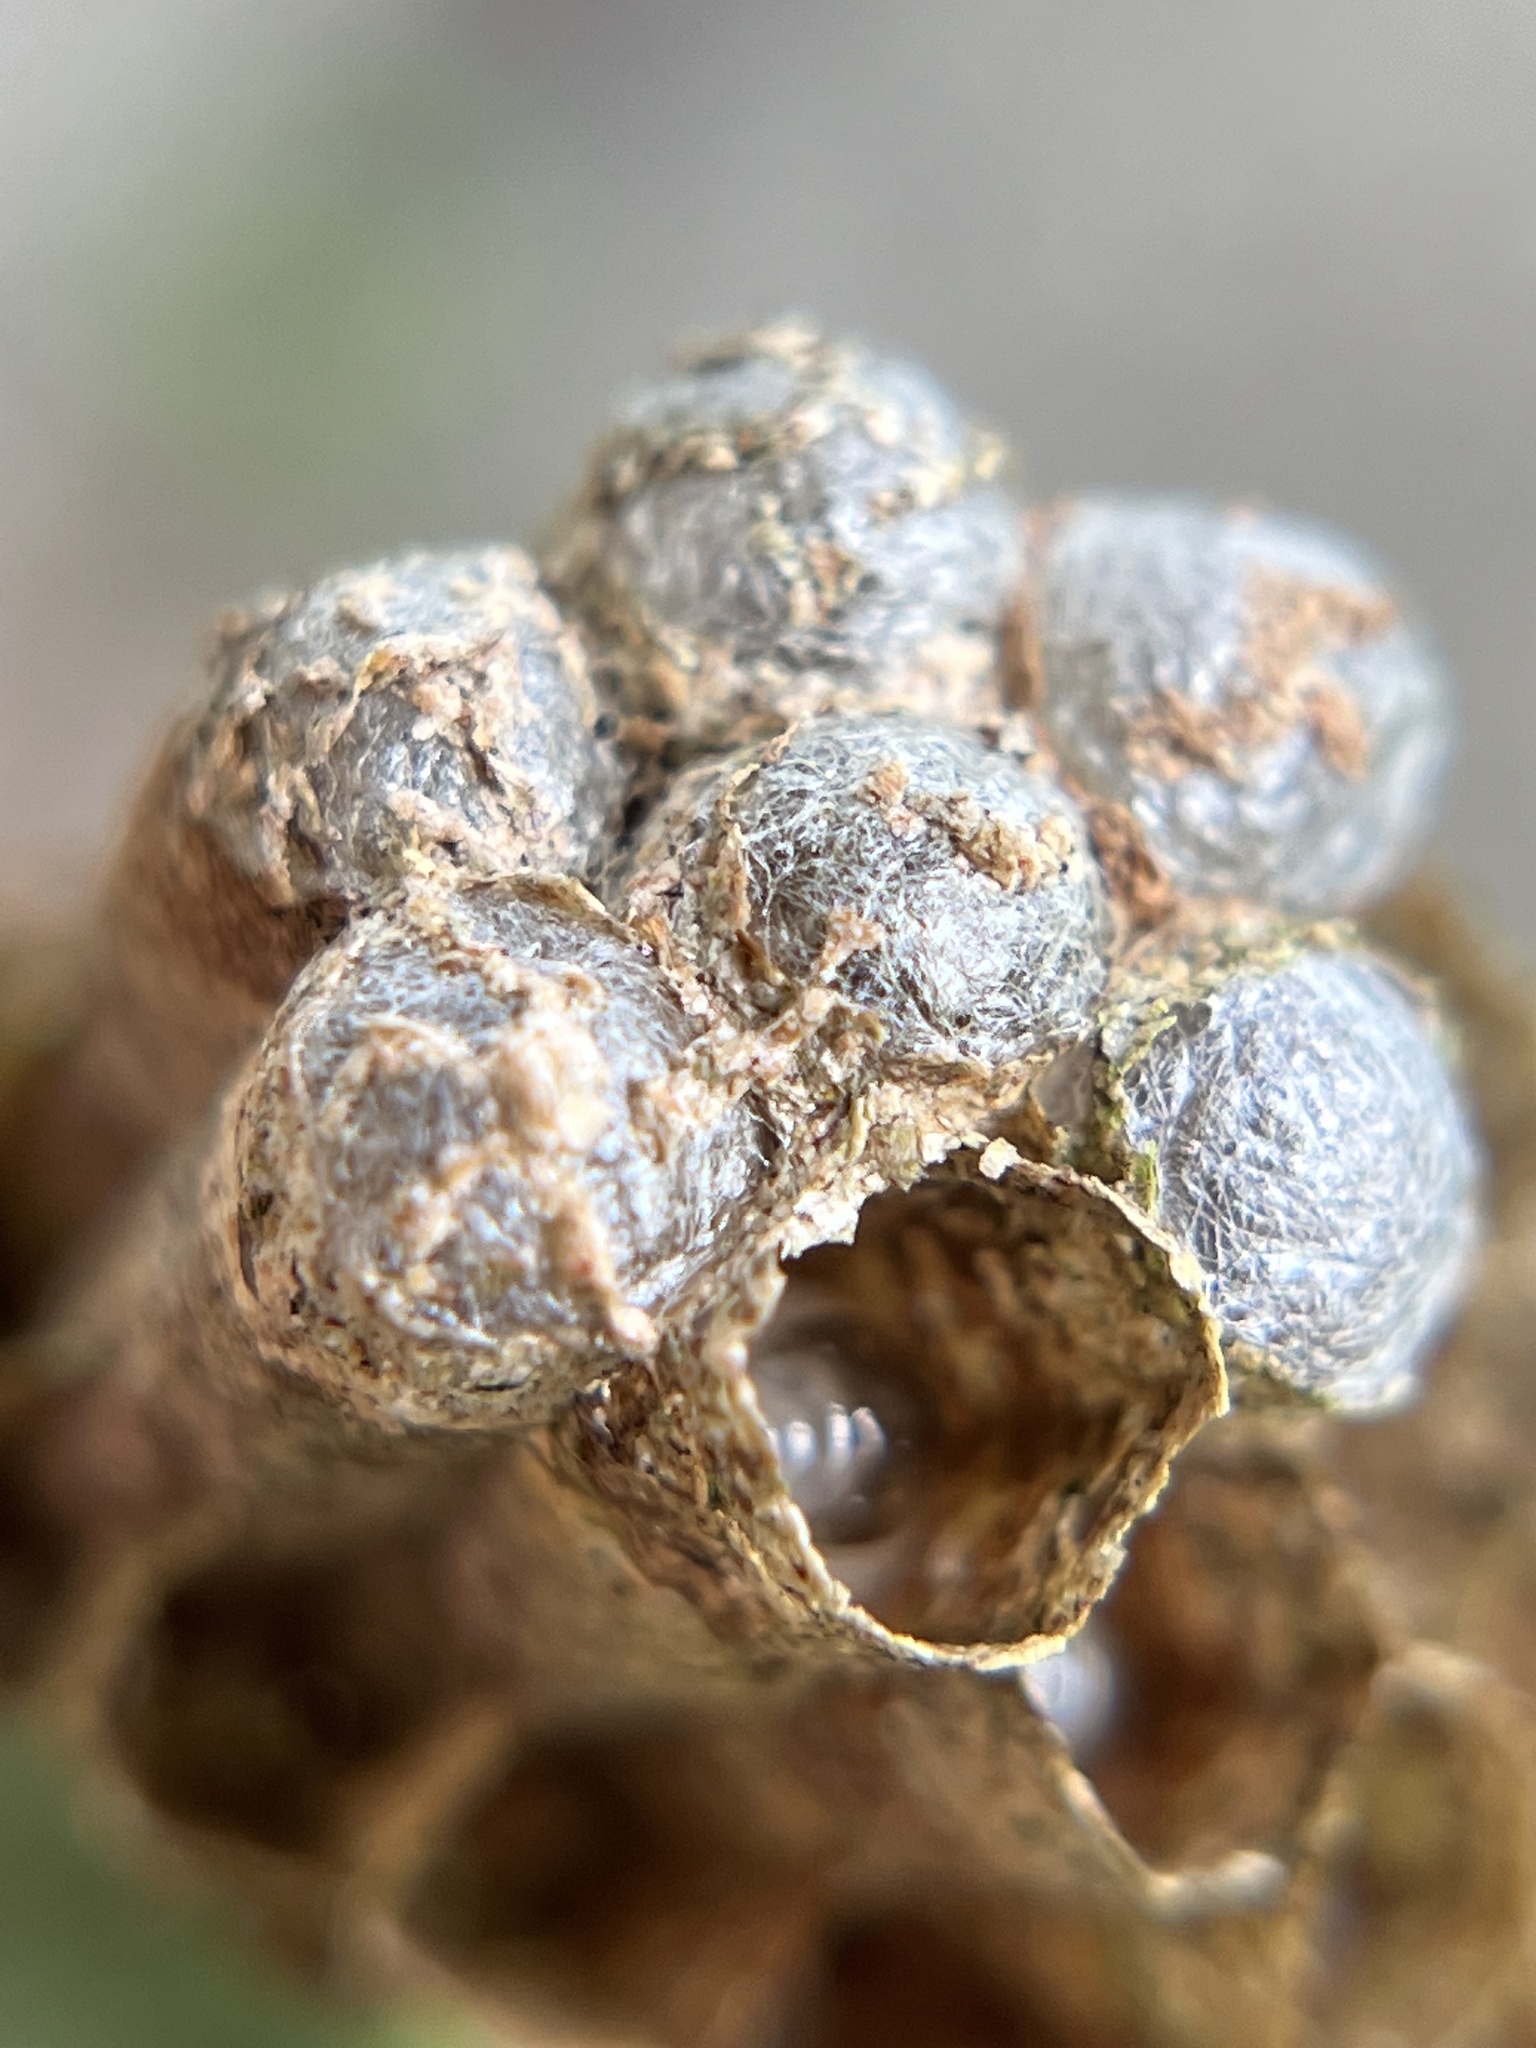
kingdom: Animalia
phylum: Arthropoda
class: Insecta
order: Hymenoptera
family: Vespidae
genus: Mischocyttarus
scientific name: Mischocyttarus mexicanus
